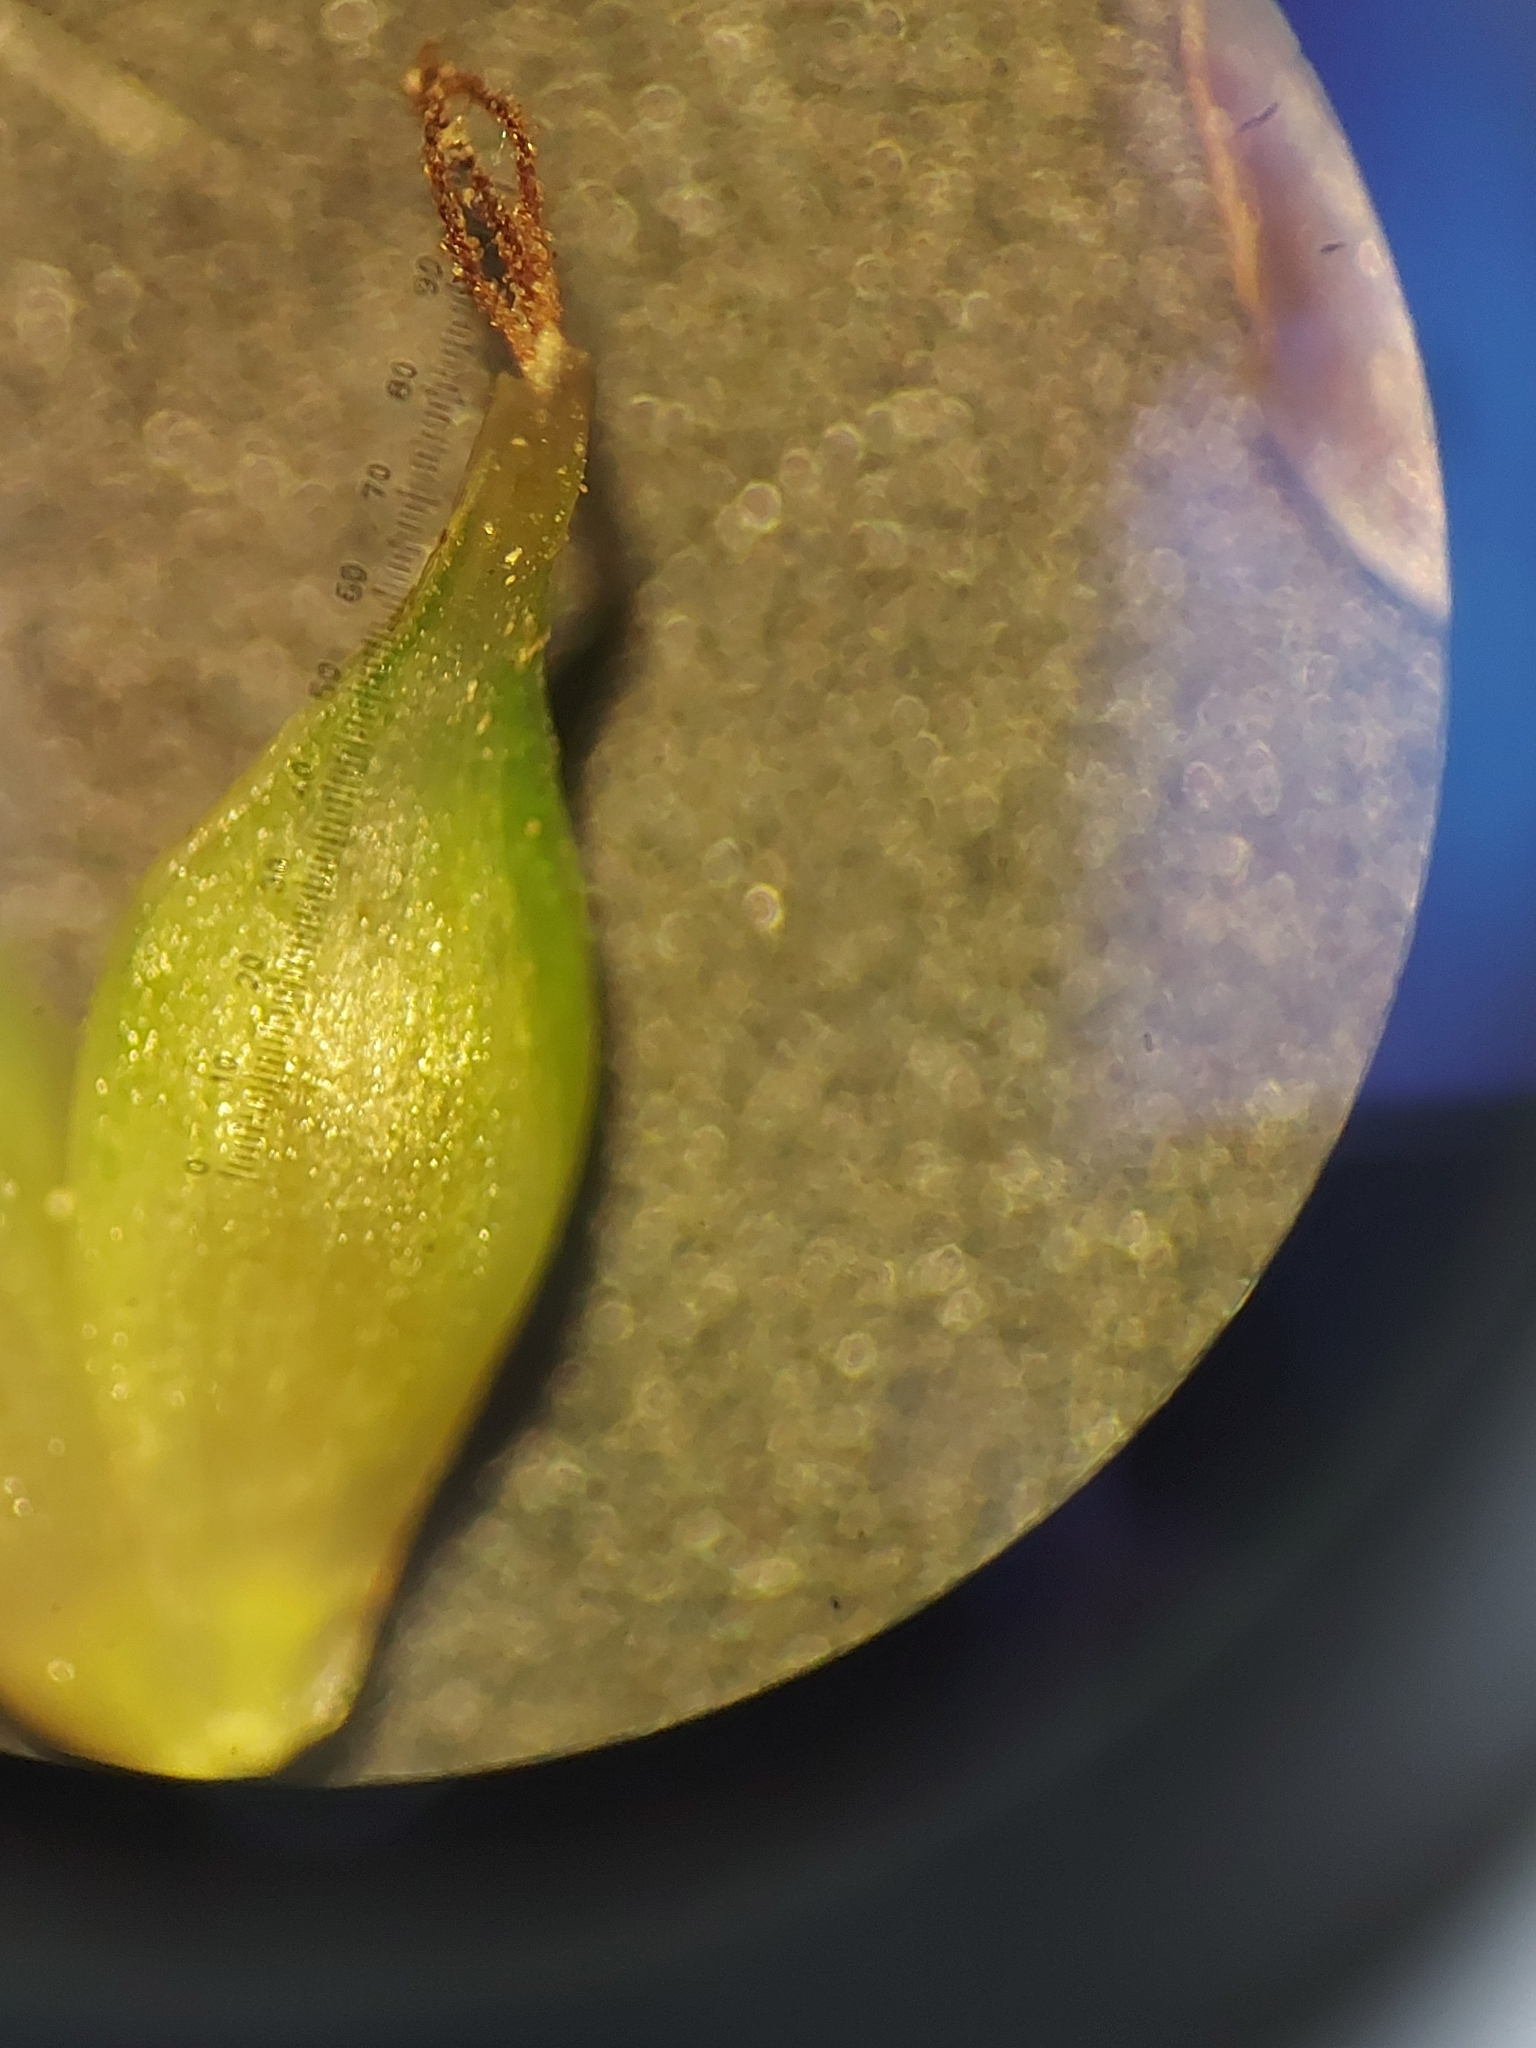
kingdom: Plantae
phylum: Tracheophyta
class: Liliopsida
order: Poales
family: Cyperaceae
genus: Carex
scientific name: Carex forsteri
